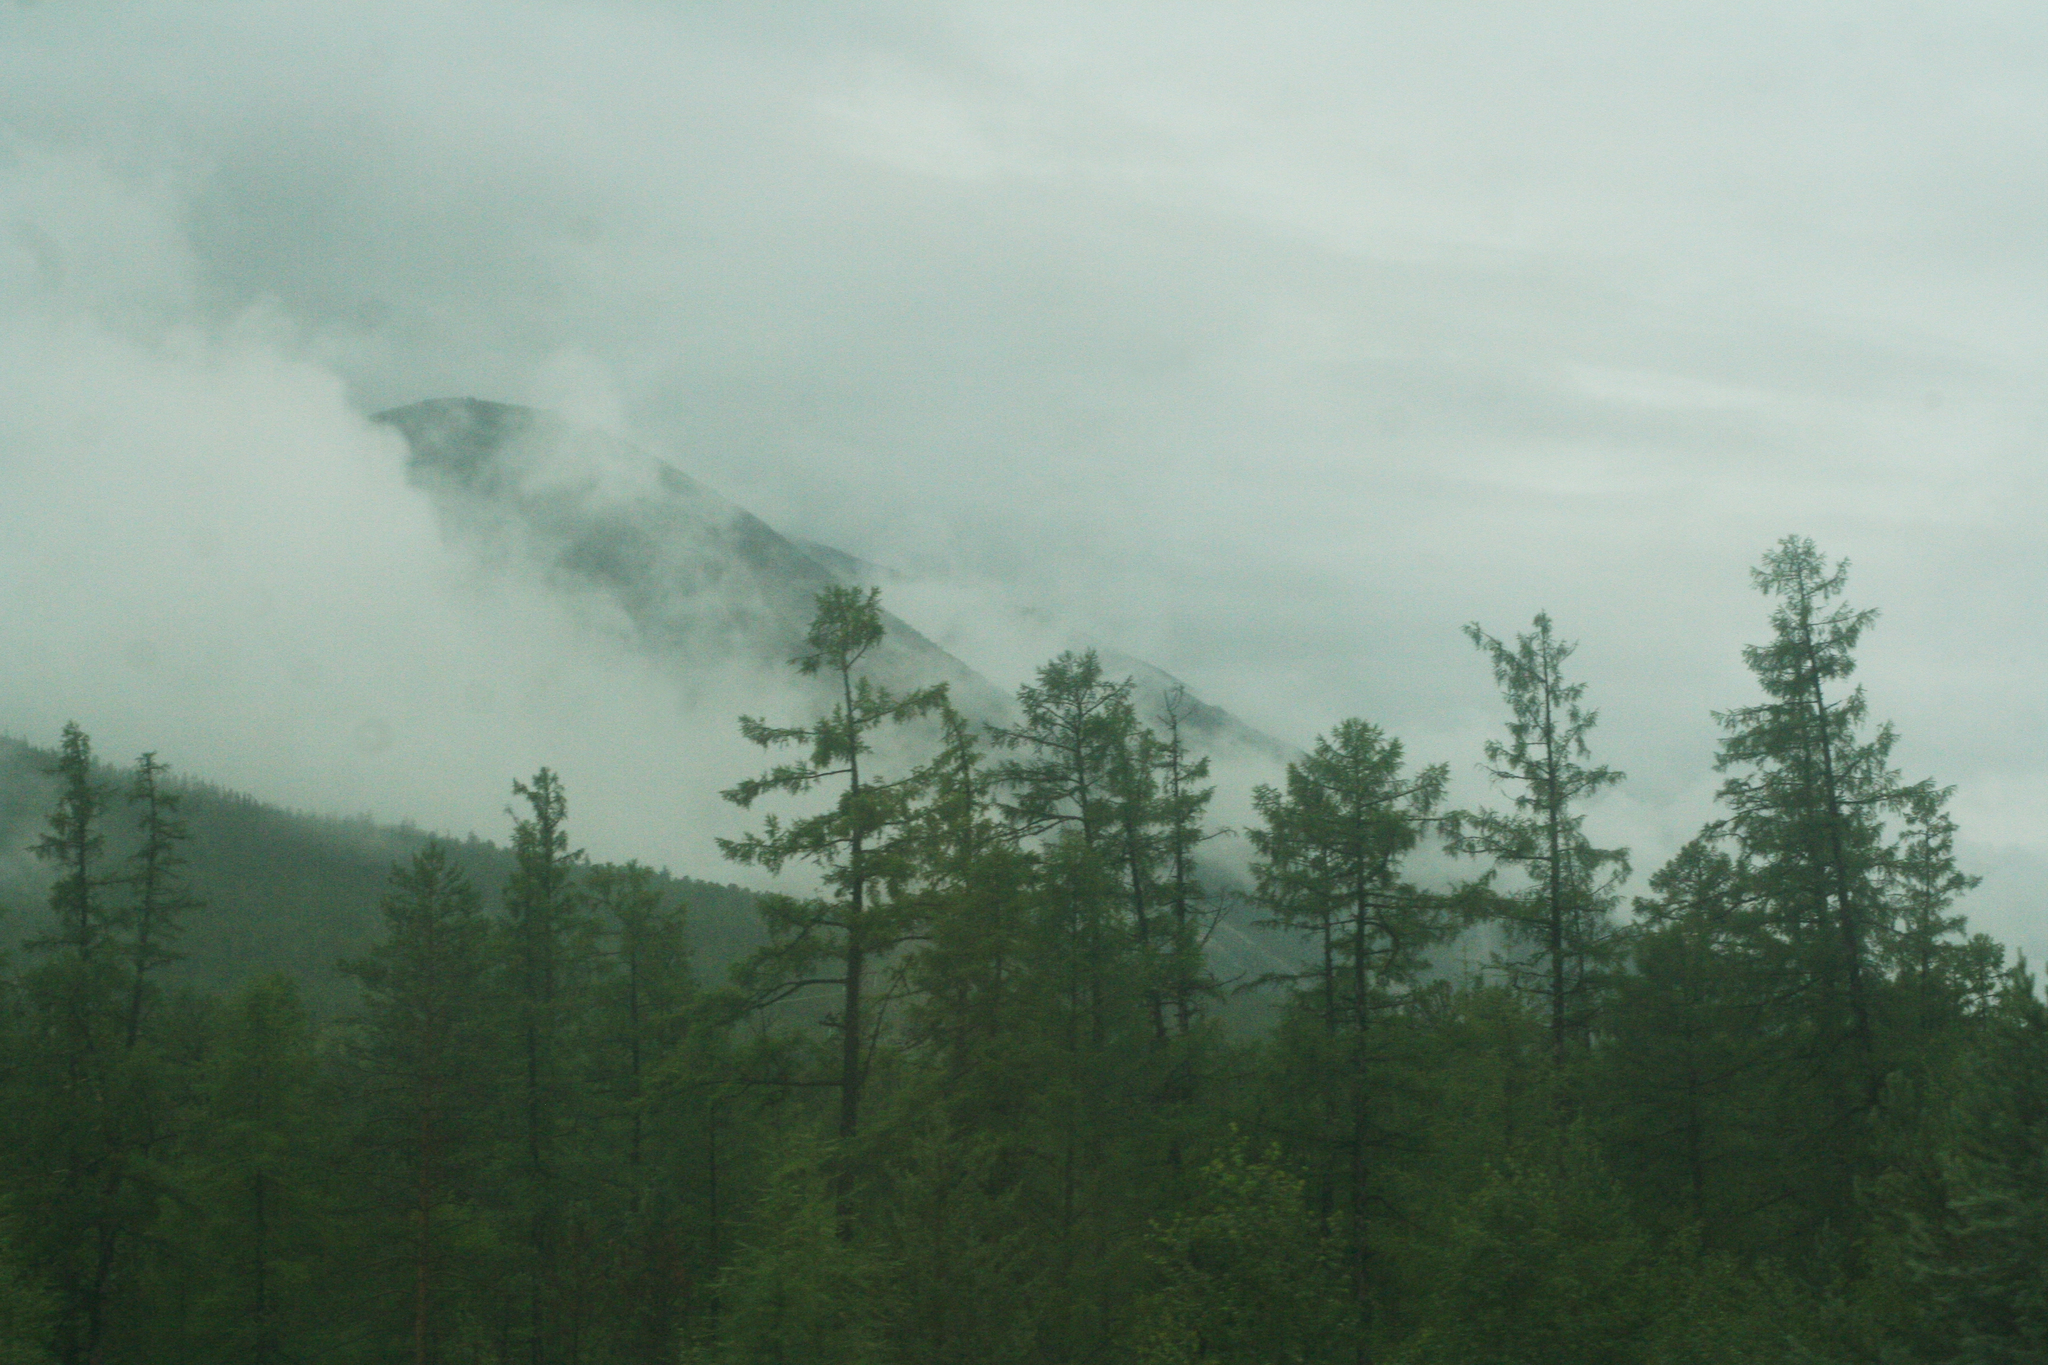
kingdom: Plantae
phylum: Tracheophyta
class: Pinopsida
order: Pinales
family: Pinaceae
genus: Larix
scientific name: Larix gmelinii
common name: Dahurian larch
